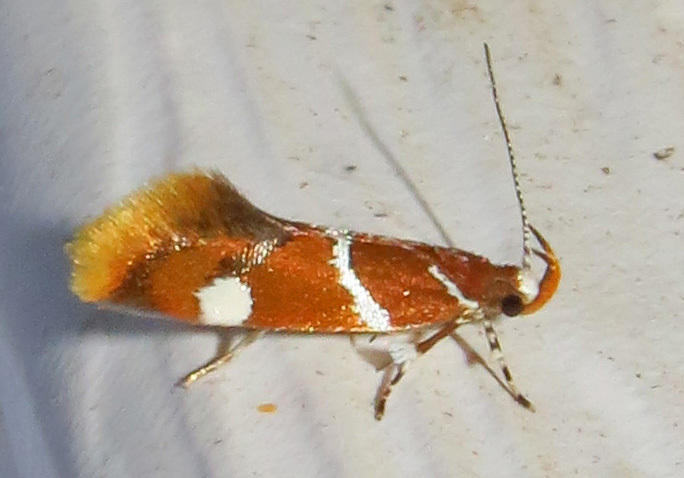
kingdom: Animalia
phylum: Arthropoda
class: Insecta
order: Lepidoptera
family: Oecophoridae
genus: Promalactis
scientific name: Promalactis suzukiella
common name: Moth
